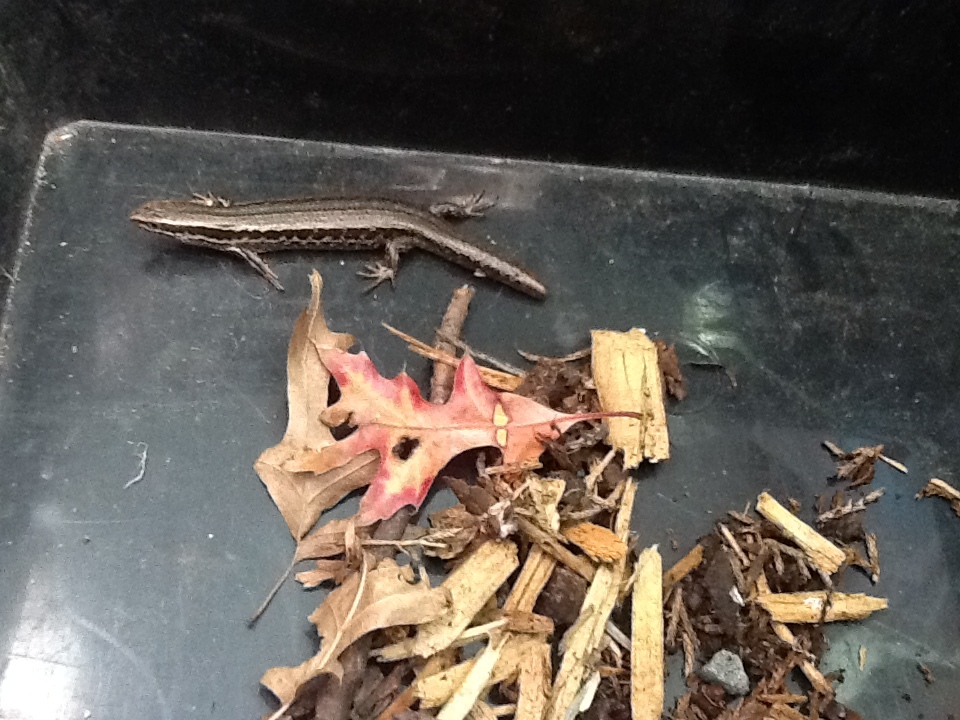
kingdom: Animalia
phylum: Chordata
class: Squamata
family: Scincidae
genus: Oligosoma
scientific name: Oligosoma polychroma
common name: Common new zealand skink
